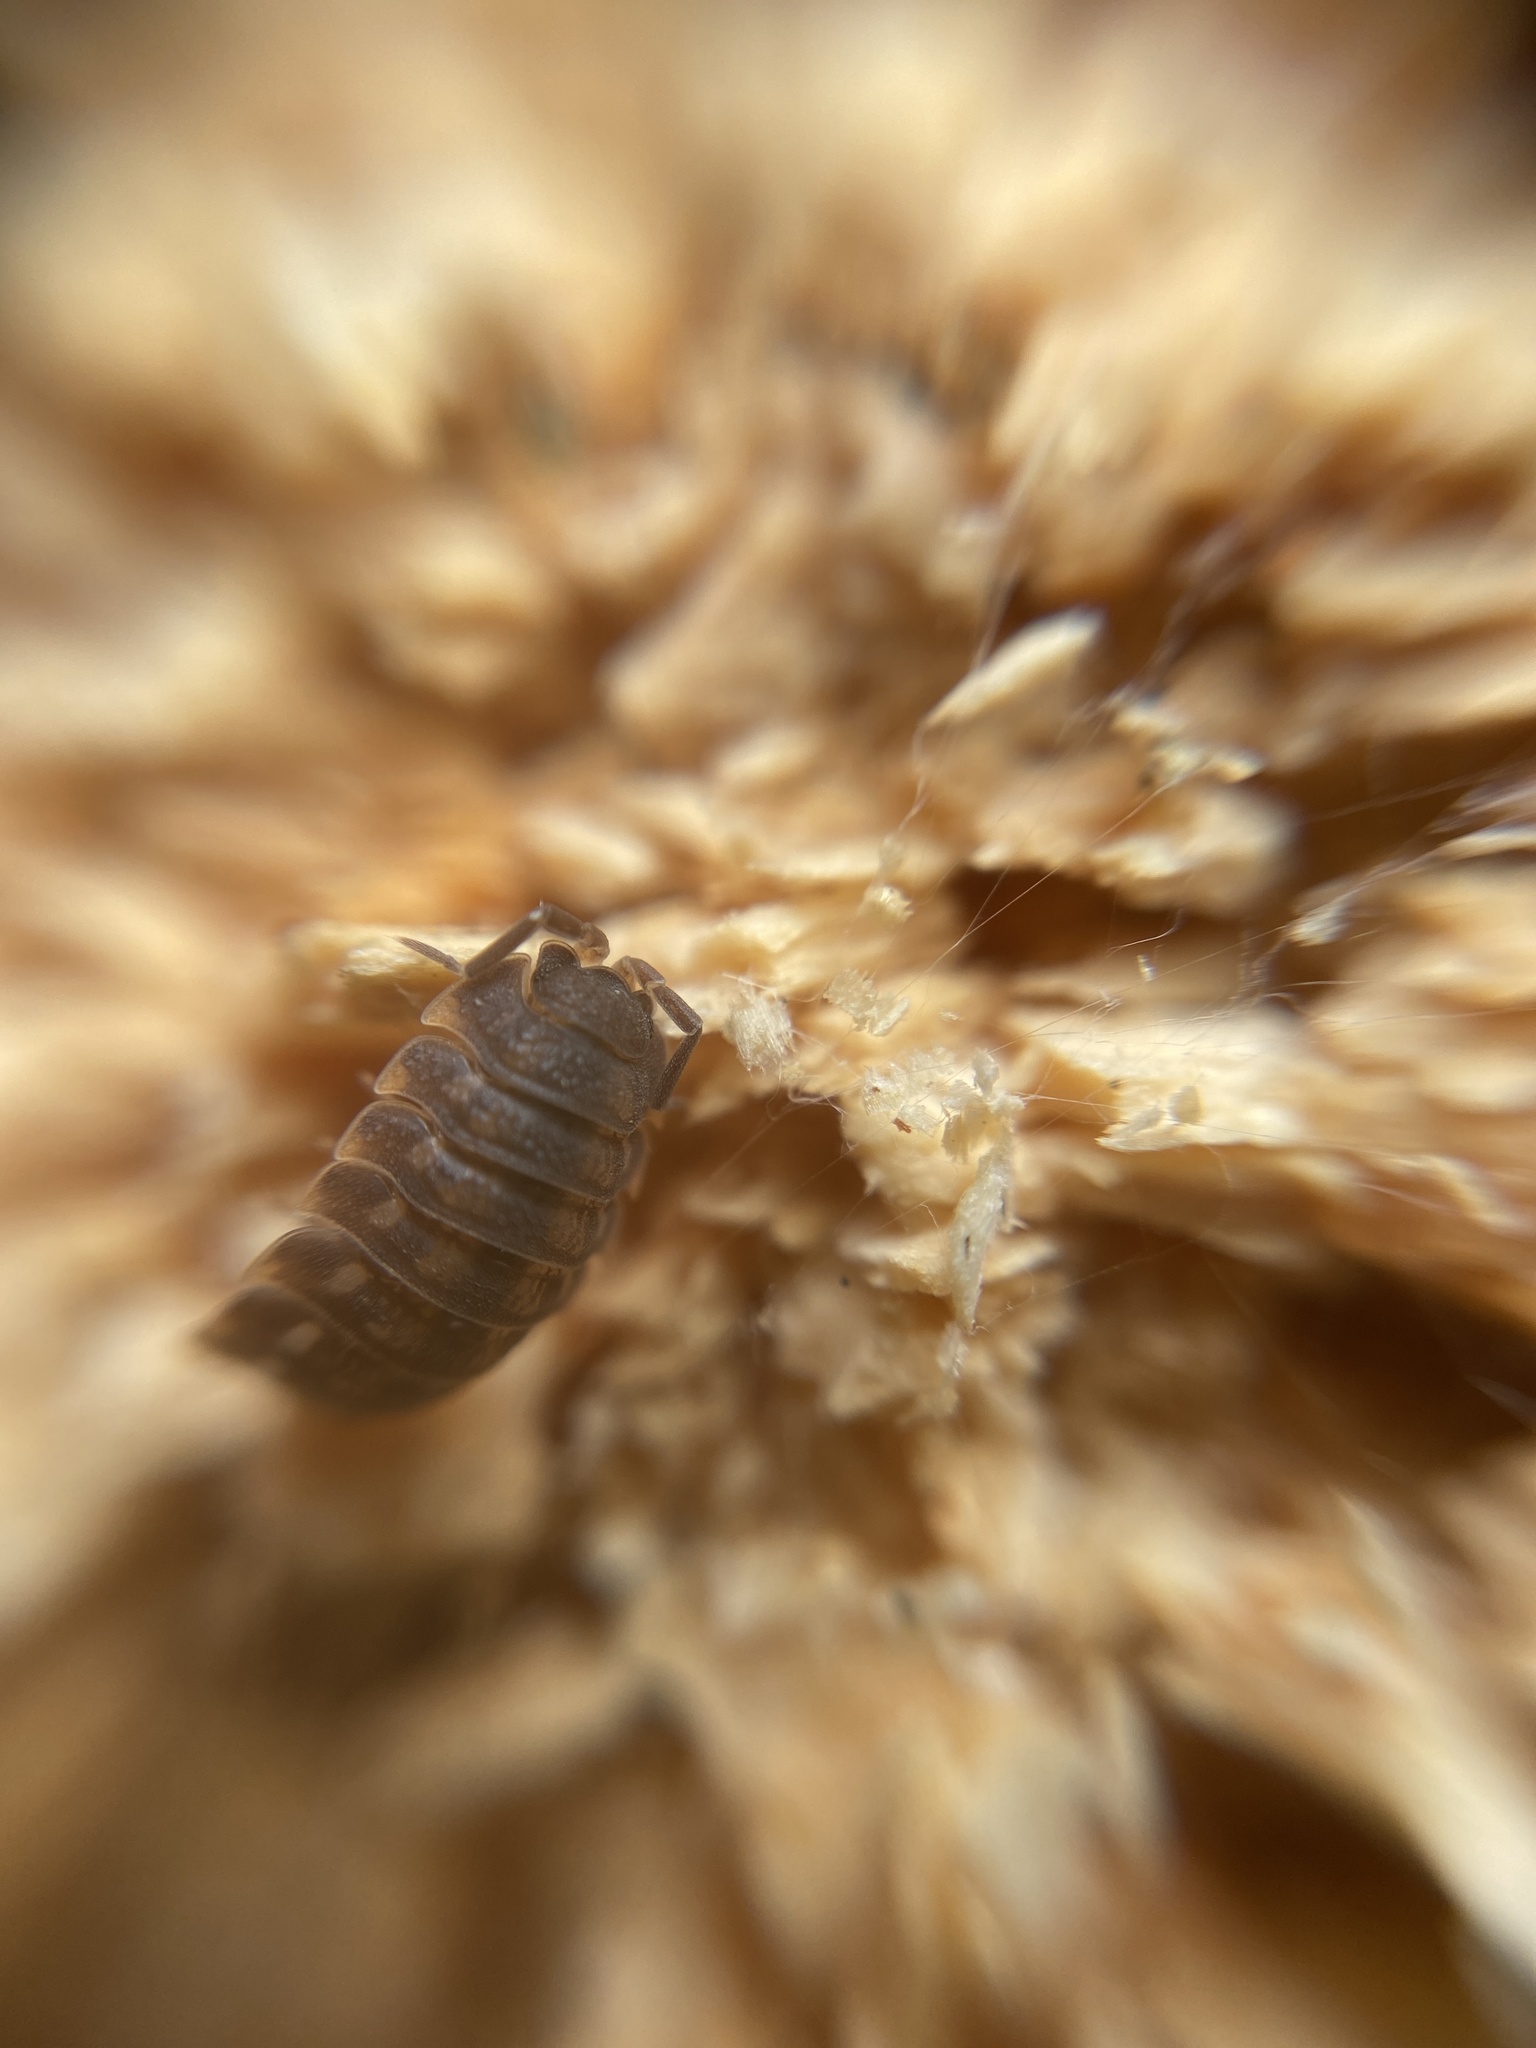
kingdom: Animalia
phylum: Arthropoda
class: Malacostraca
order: Isopoda
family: Trachelipodidae
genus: Trachelipus
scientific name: Trachelipus ratzeburgii
